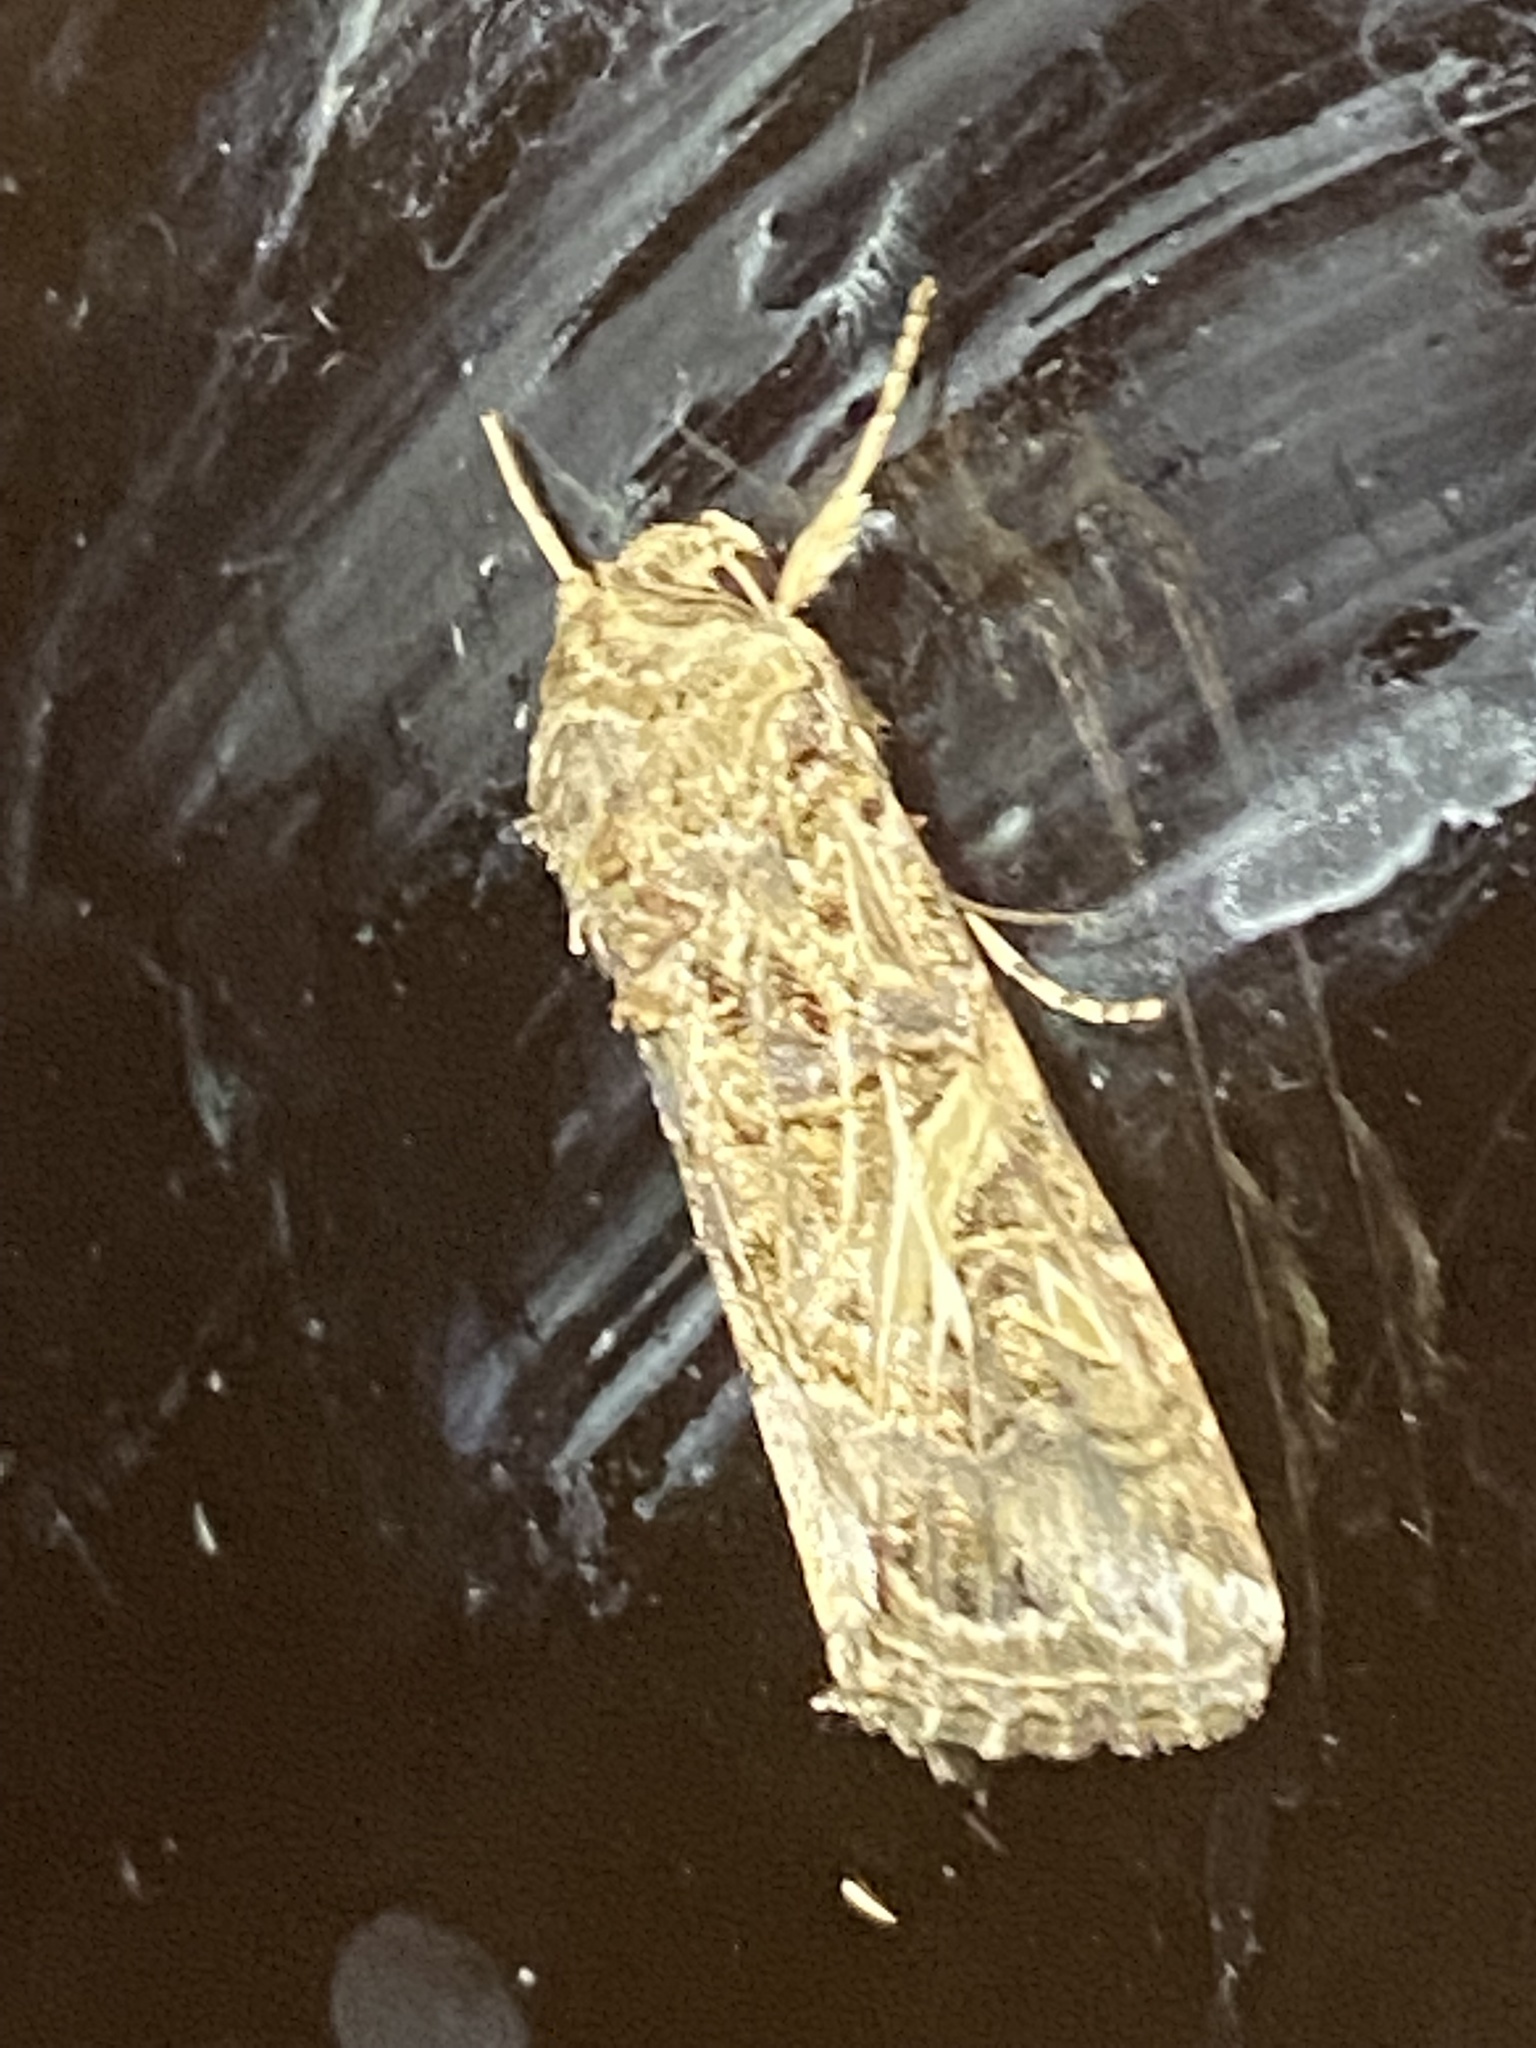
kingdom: Animalia
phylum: Arthropoda
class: Insecta
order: Lepidoptera
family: Noctuidae
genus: Spodoptera
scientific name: Spodoptera ornithogalli
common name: Yellow-striped armyworm
